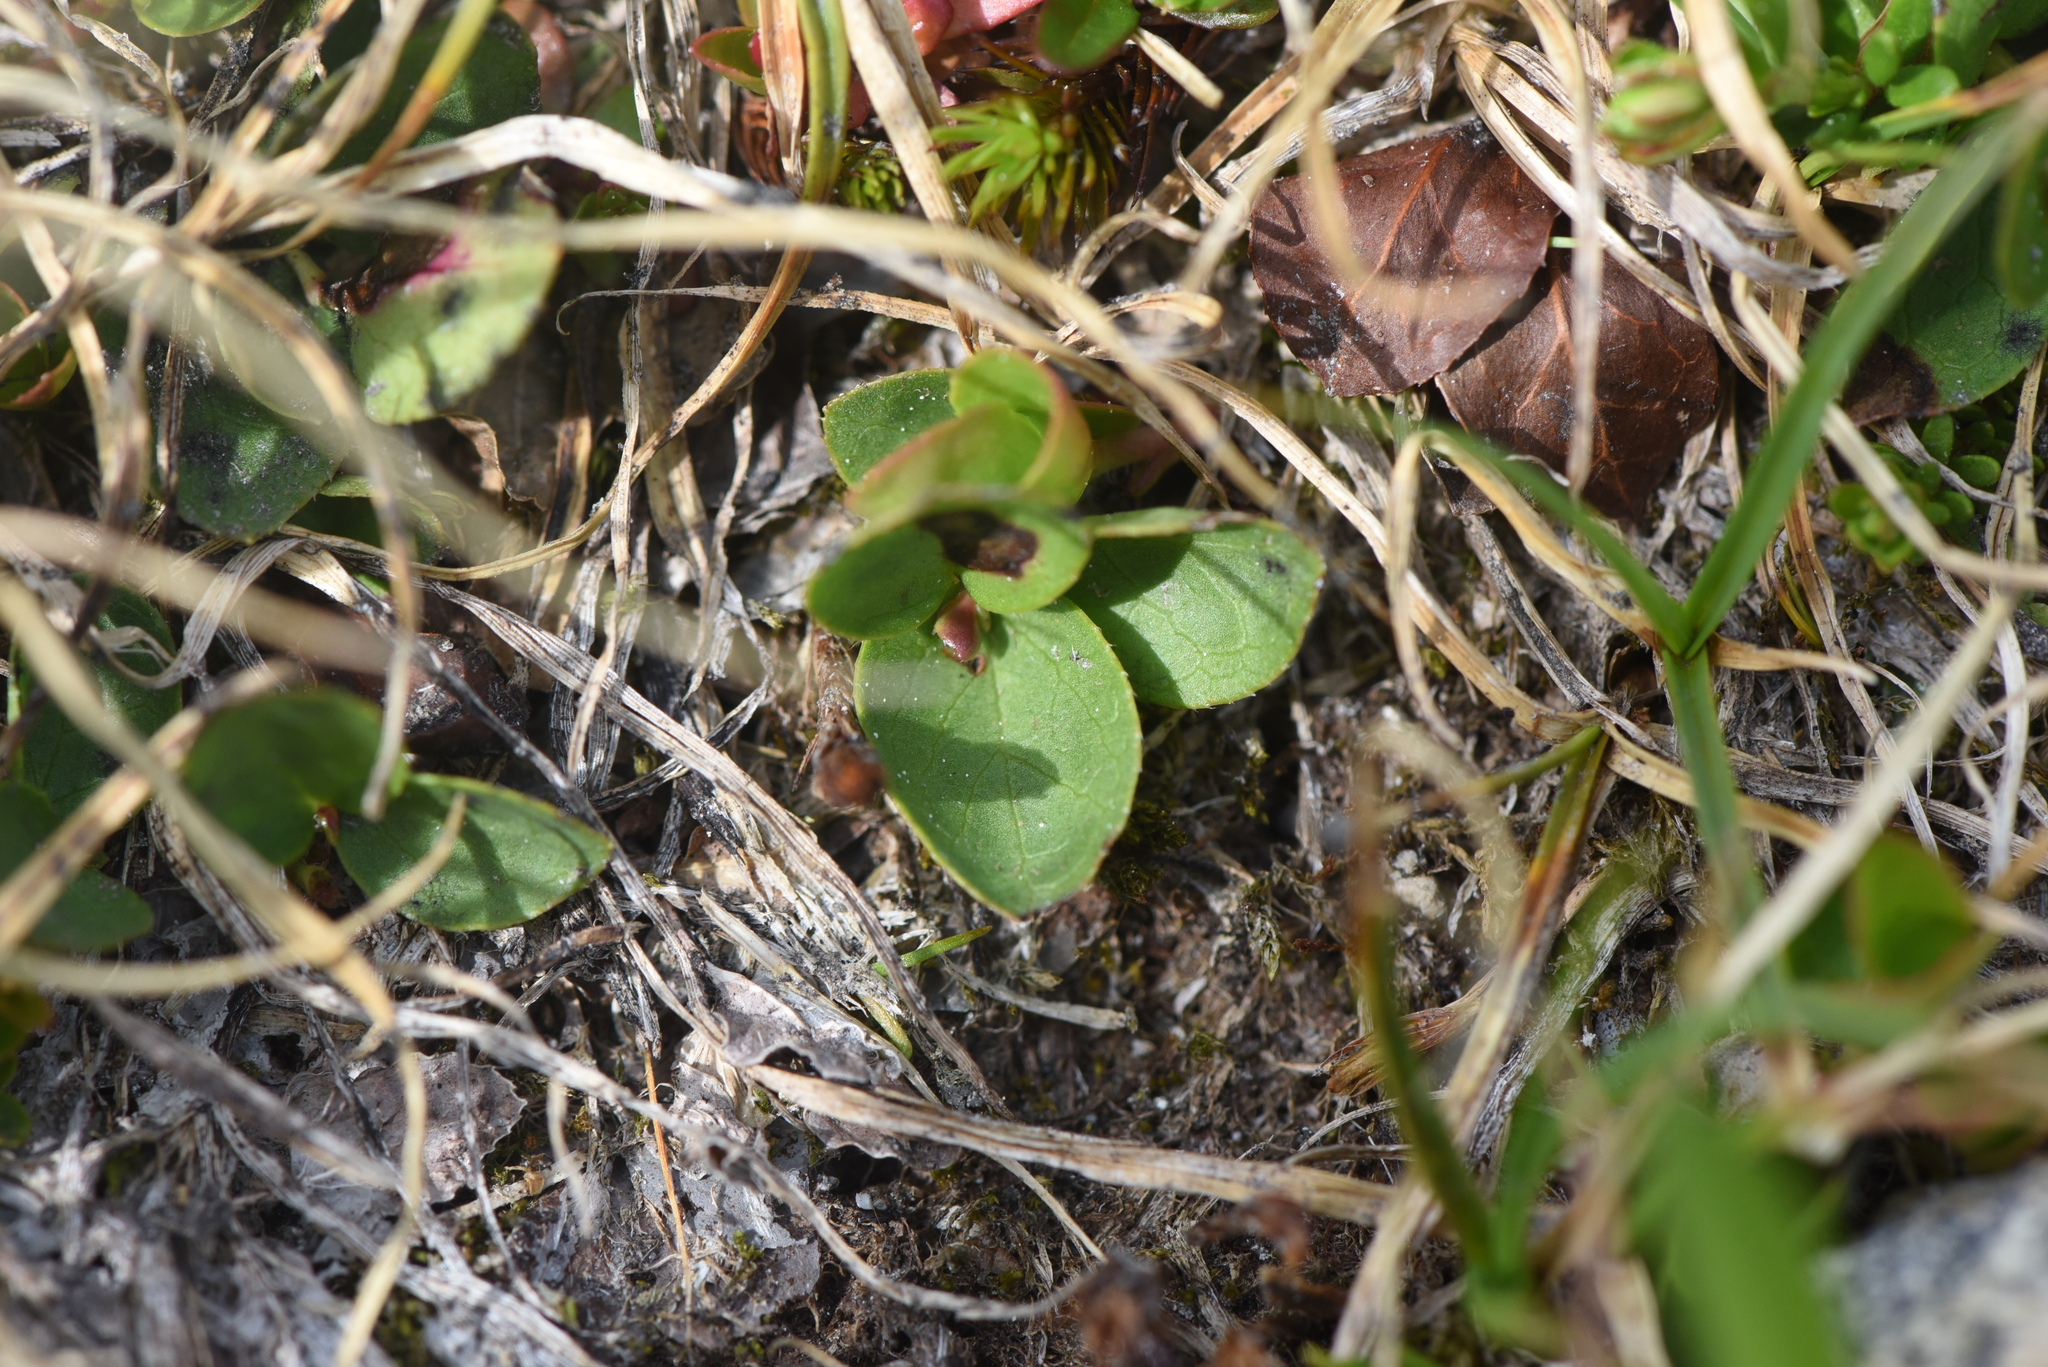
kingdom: Plantae
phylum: Tracheophyta
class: Magnoliopsida
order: Ericales
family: Ericaceae
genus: Gaultheria
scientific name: Gaultheria humifusa
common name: Alpine wintergreen
